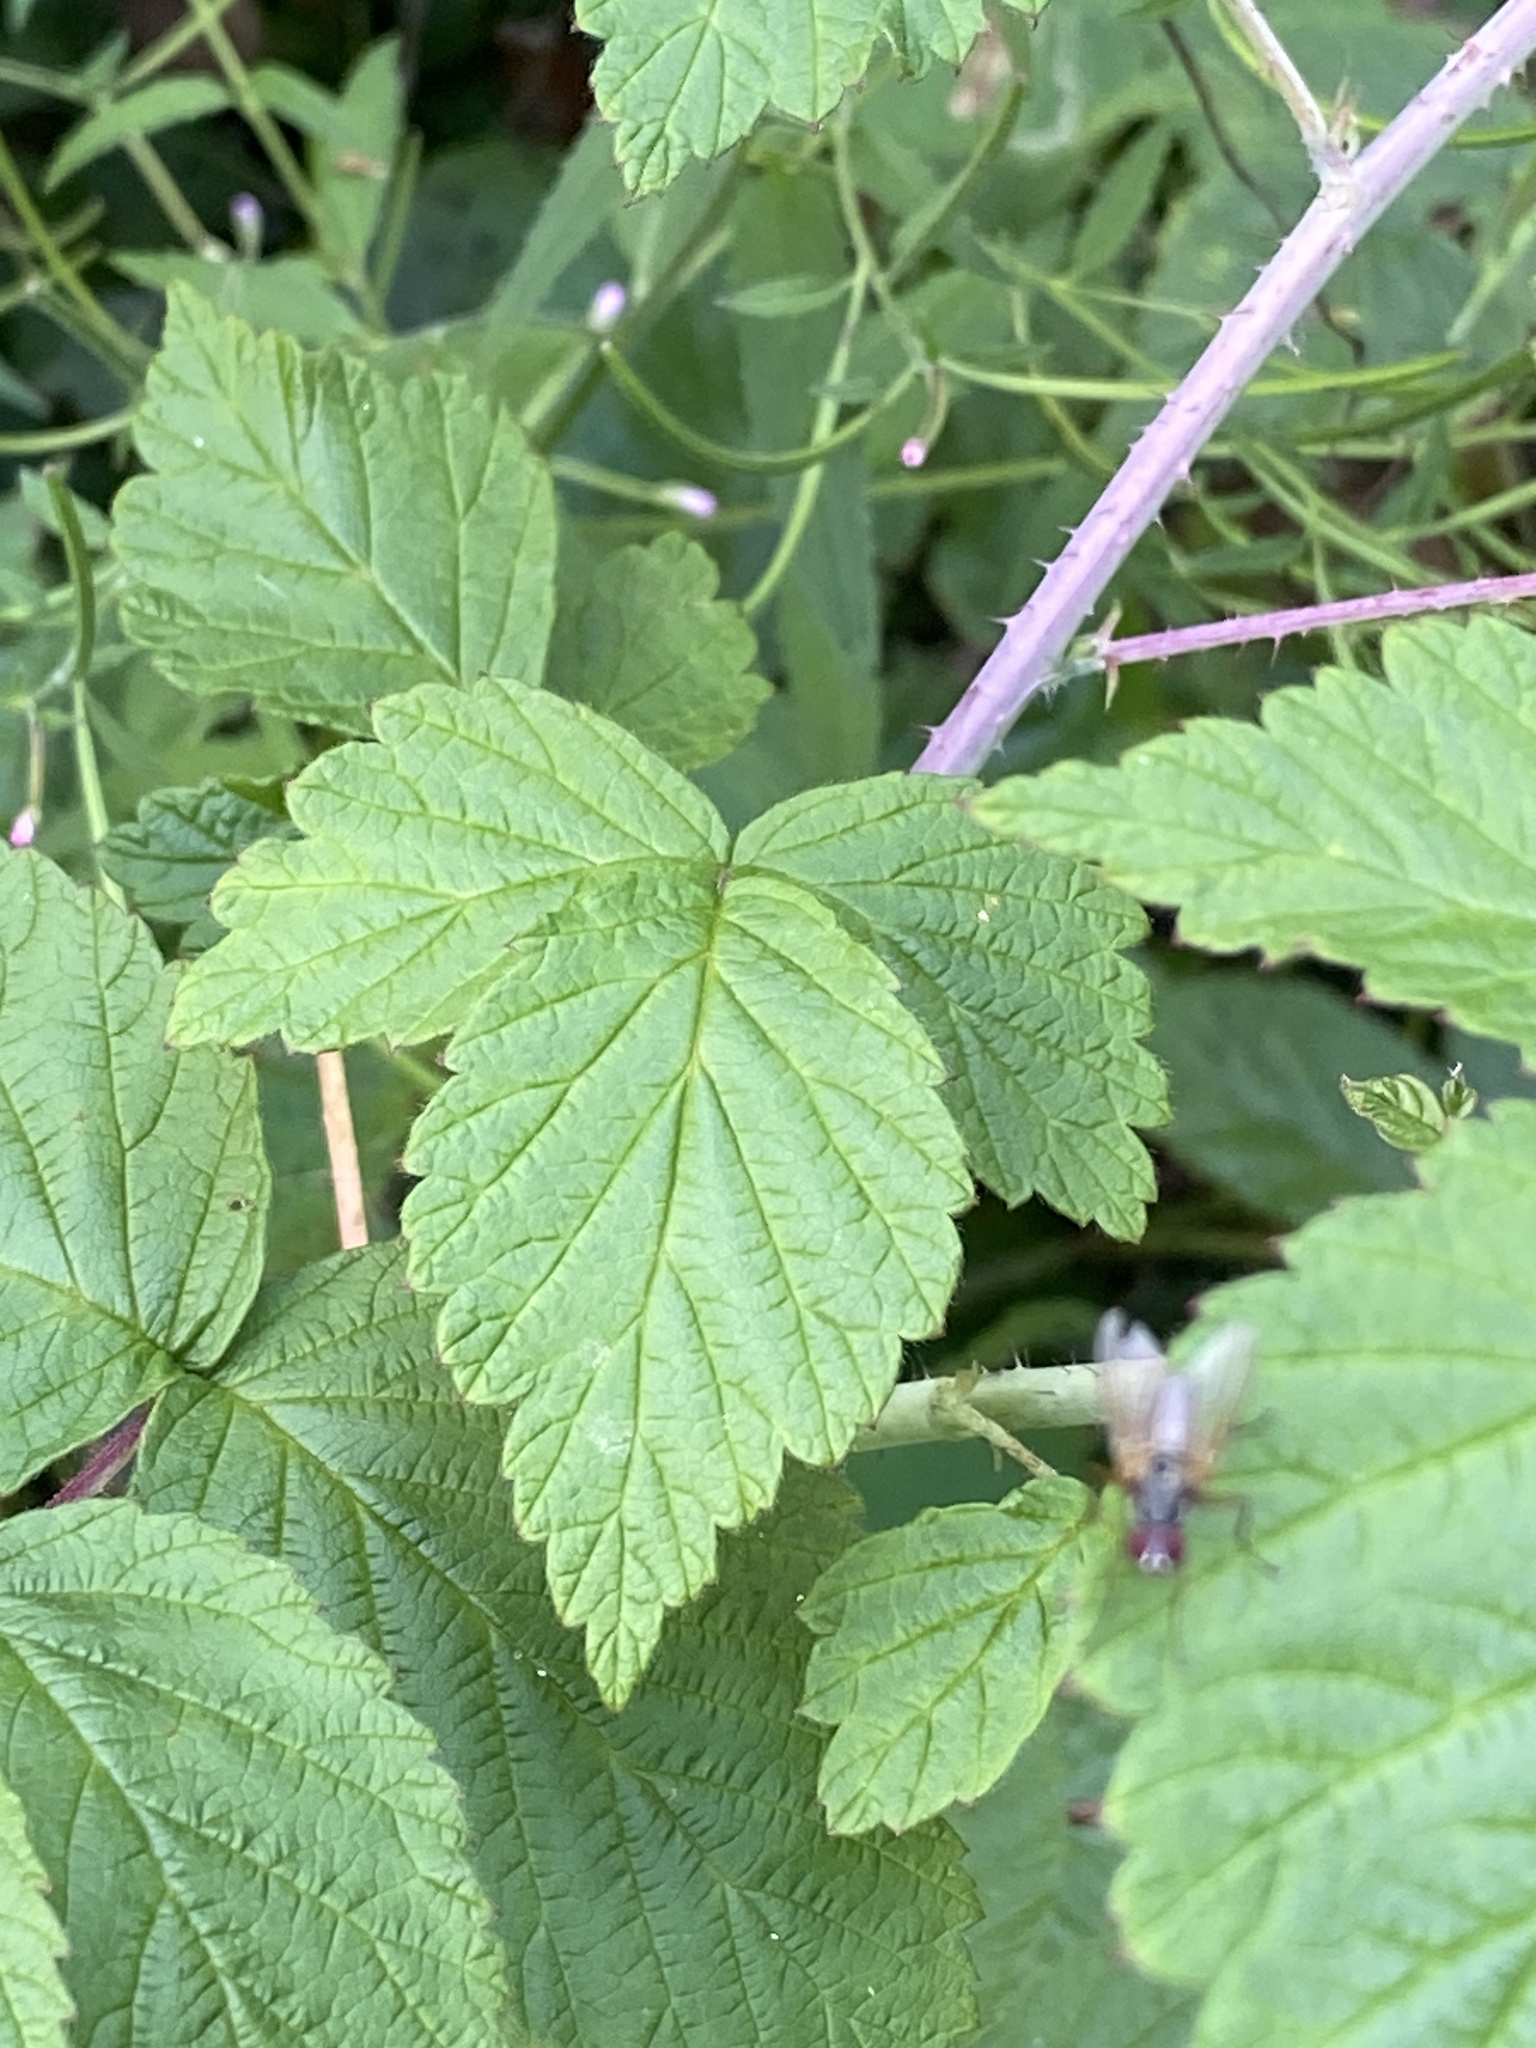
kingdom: Plantae
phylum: Tracheophyta
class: Magnoliopsida
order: Rosales
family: Rosaceae
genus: Rubus
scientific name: Rubus occidentalis
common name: Black raspberry
